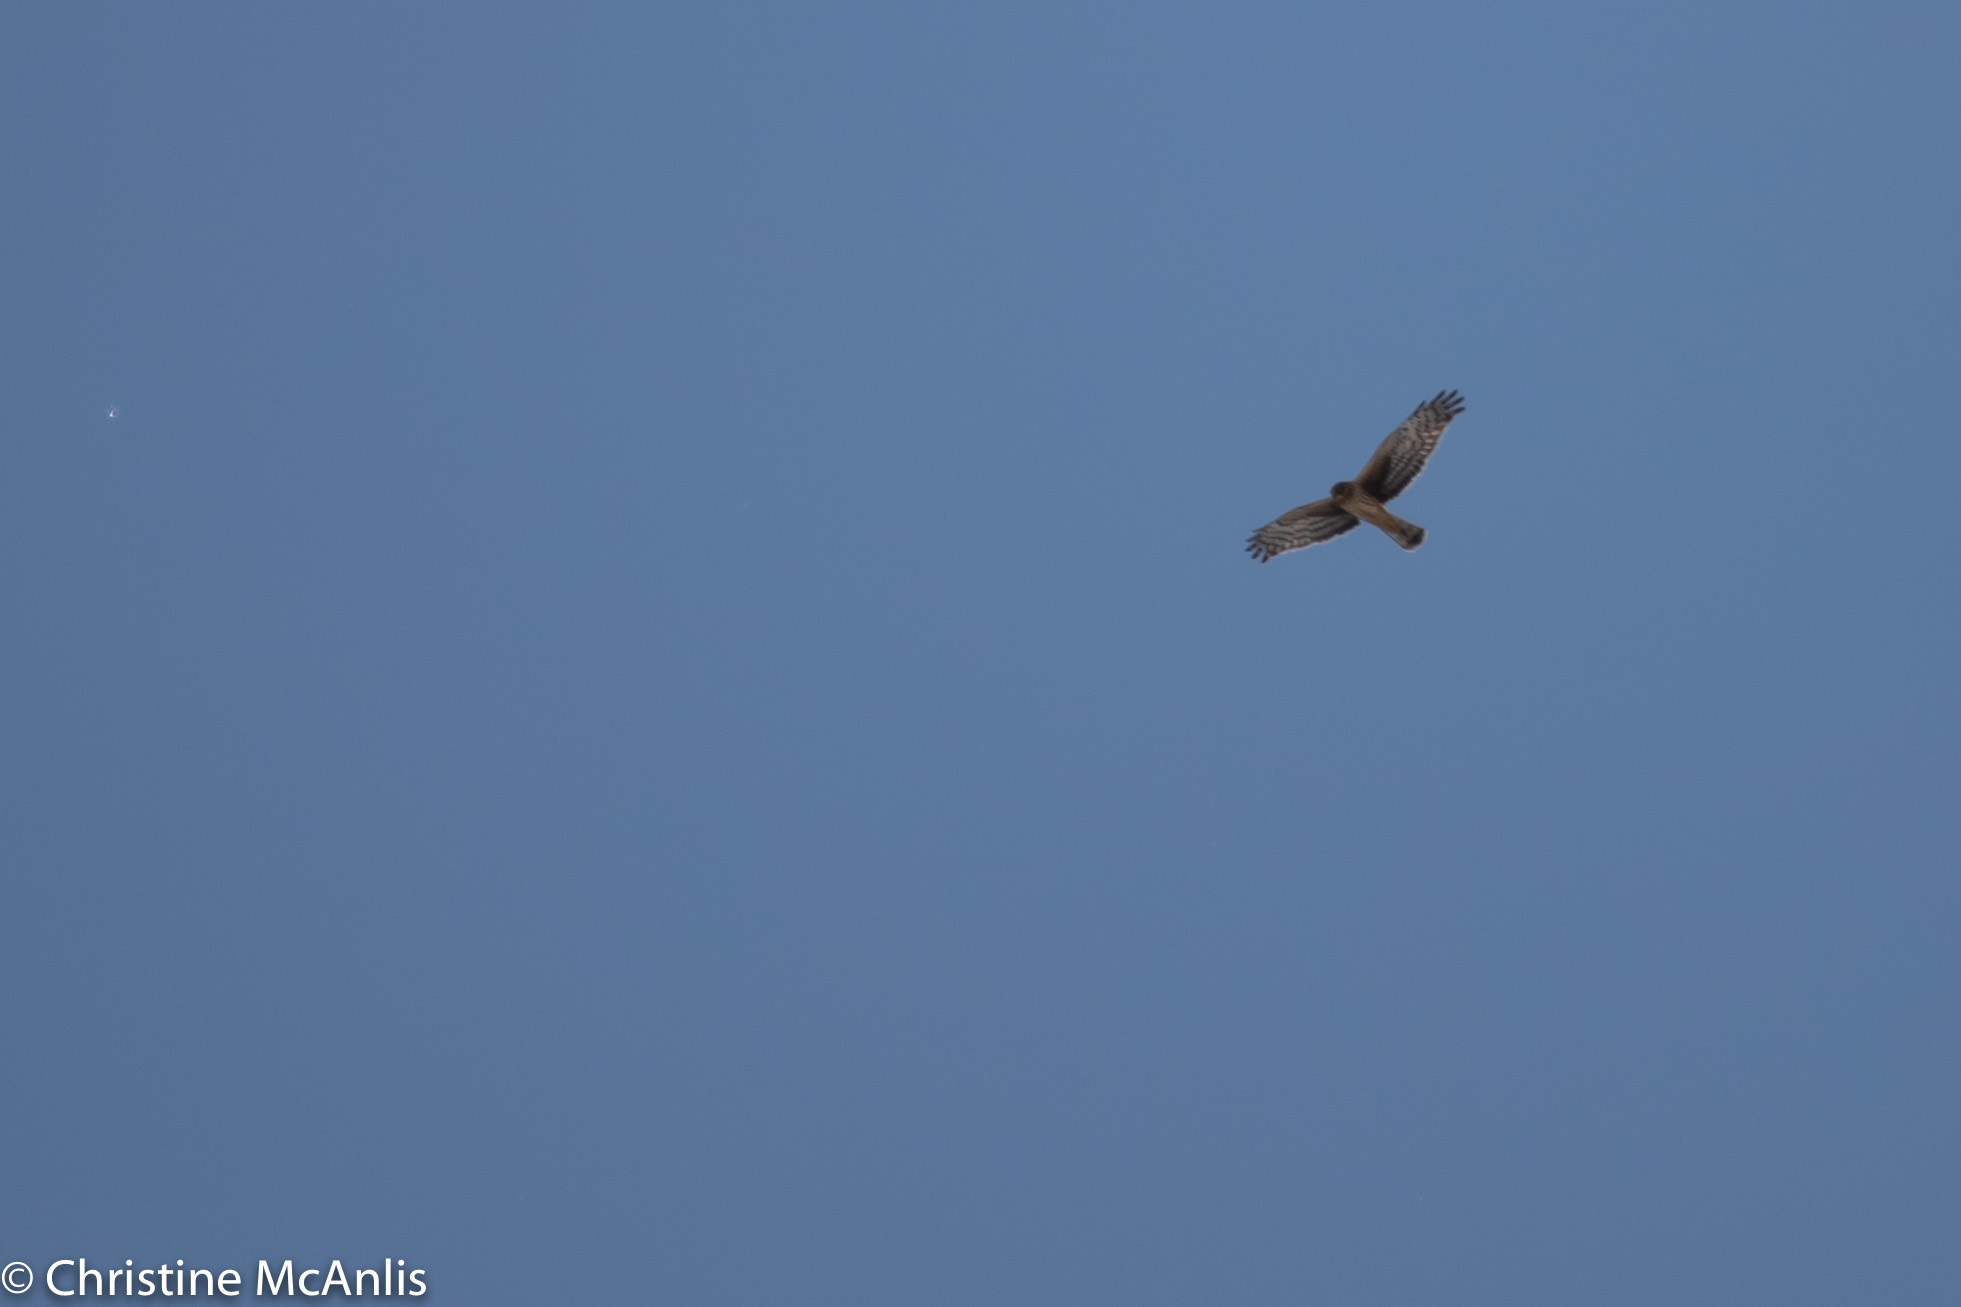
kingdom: Animalia
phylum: Chordata
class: Aves
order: Accipitriformes
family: Accipitridae
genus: Circus
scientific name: Circus cyaneus
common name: Hen harrier
